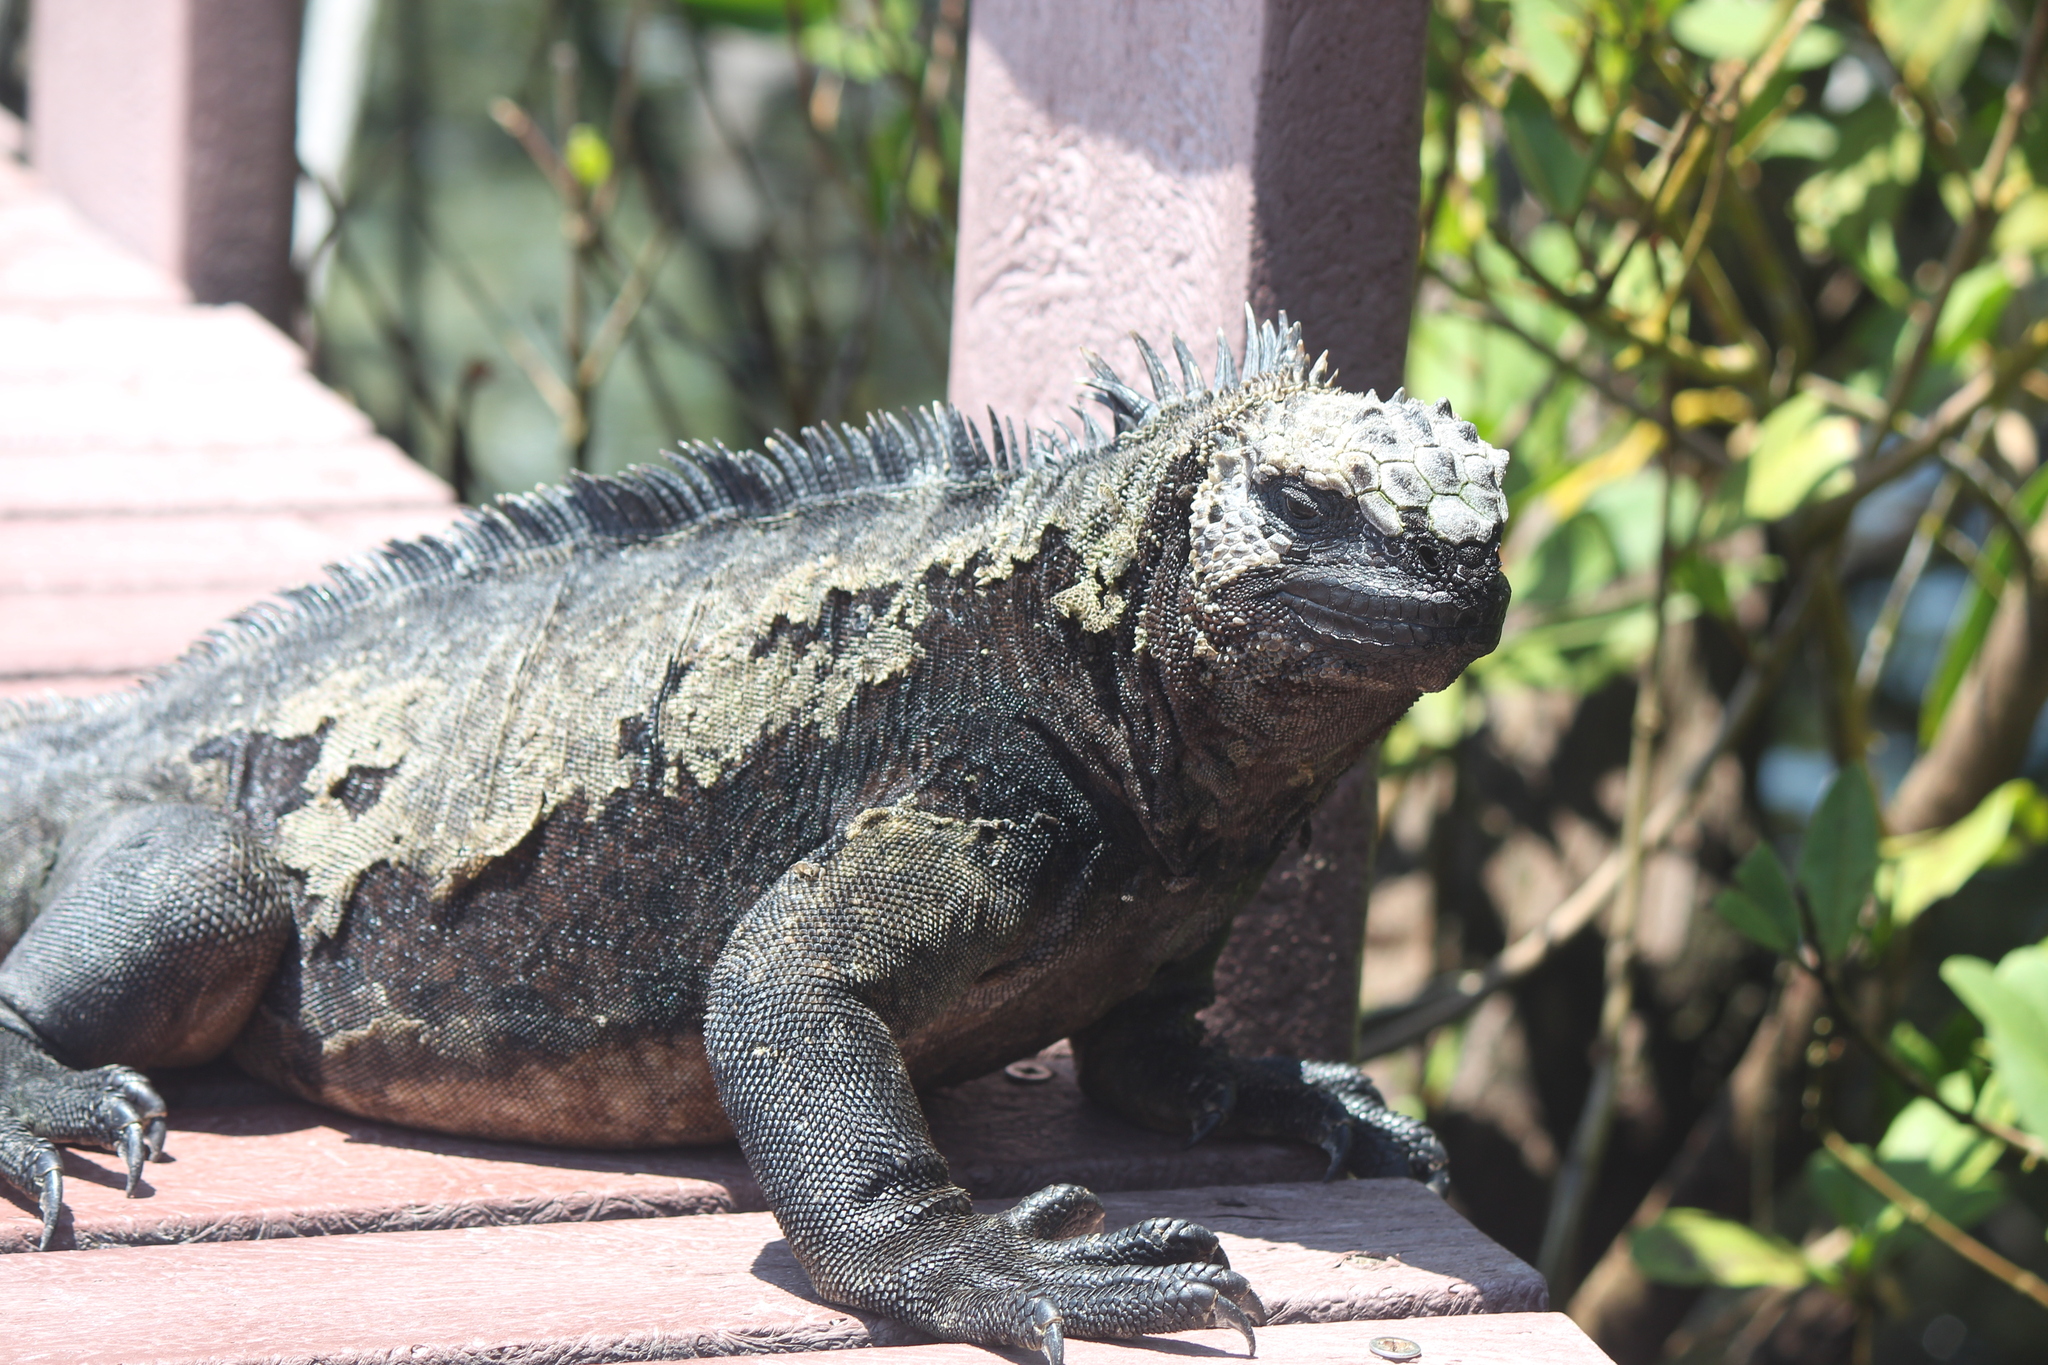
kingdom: Animalia
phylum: Chordata
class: Squamata
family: Iguanidae
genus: Amblyrhynchus
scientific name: Amblyrhynchus cristatus
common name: Marine iguana
